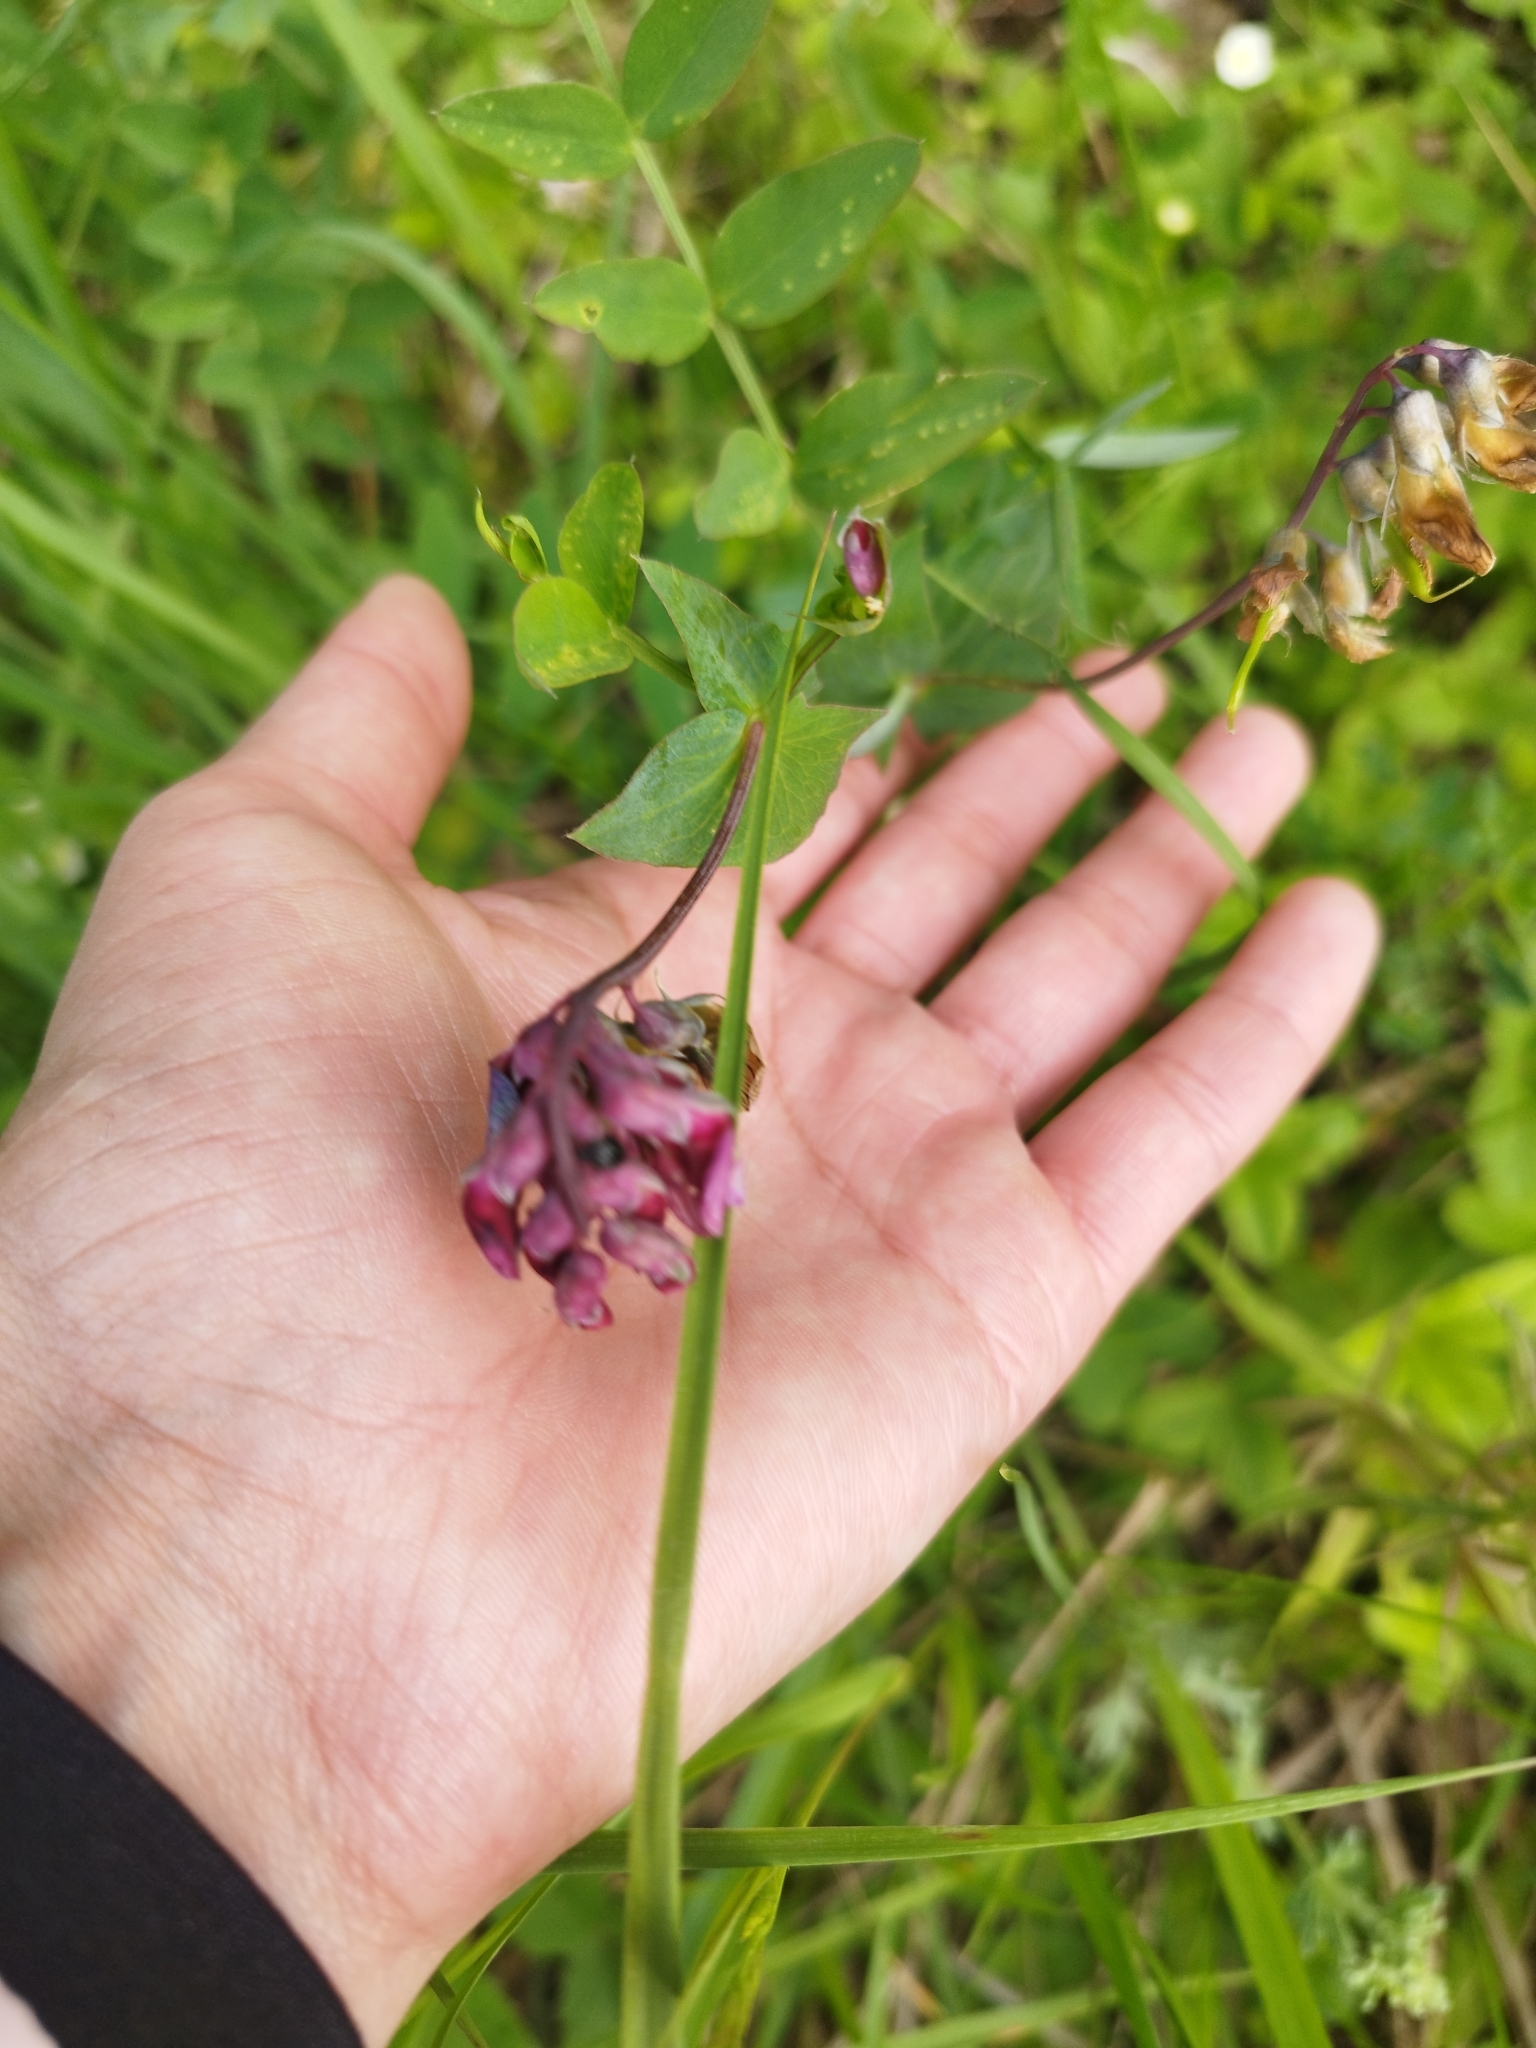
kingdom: Plantae
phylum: Tracheophyta
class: Magnoliopsida
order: Fabales
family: Fabaceae
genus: Lathyrus
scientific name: Lathyrus pisiformis
